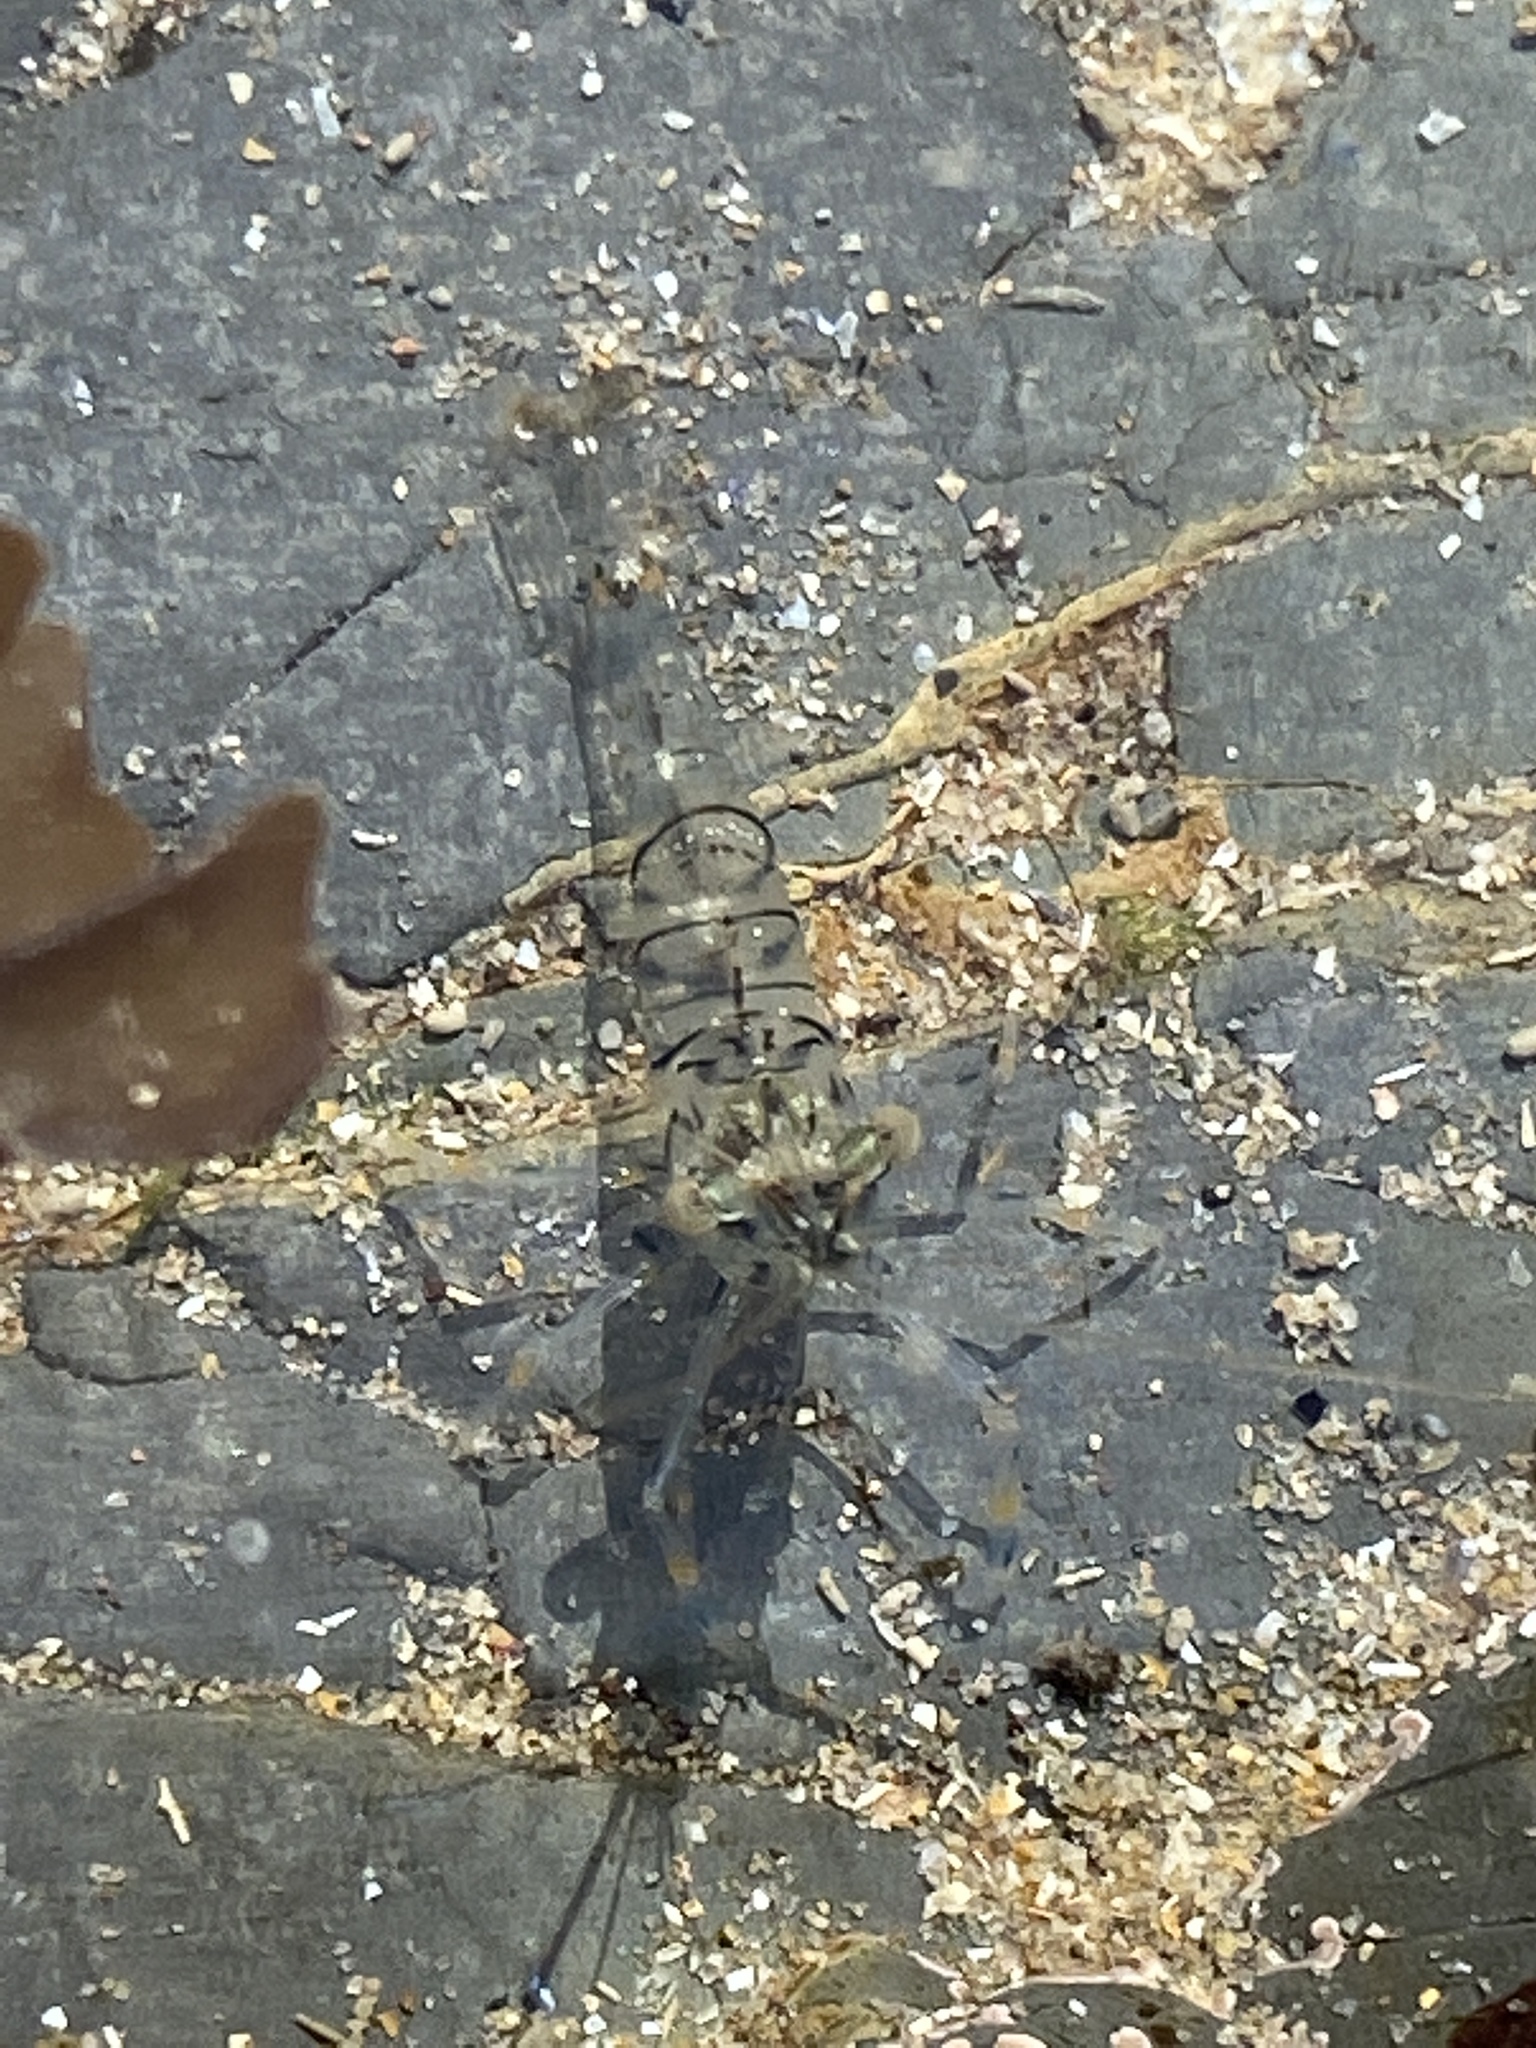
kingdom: Animalia
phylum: Arthropoda
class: Malacostraca
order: Decapoda
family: Palaemonidae
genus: Palaemon
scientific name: Palaemon elegans
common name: Grass prawm
